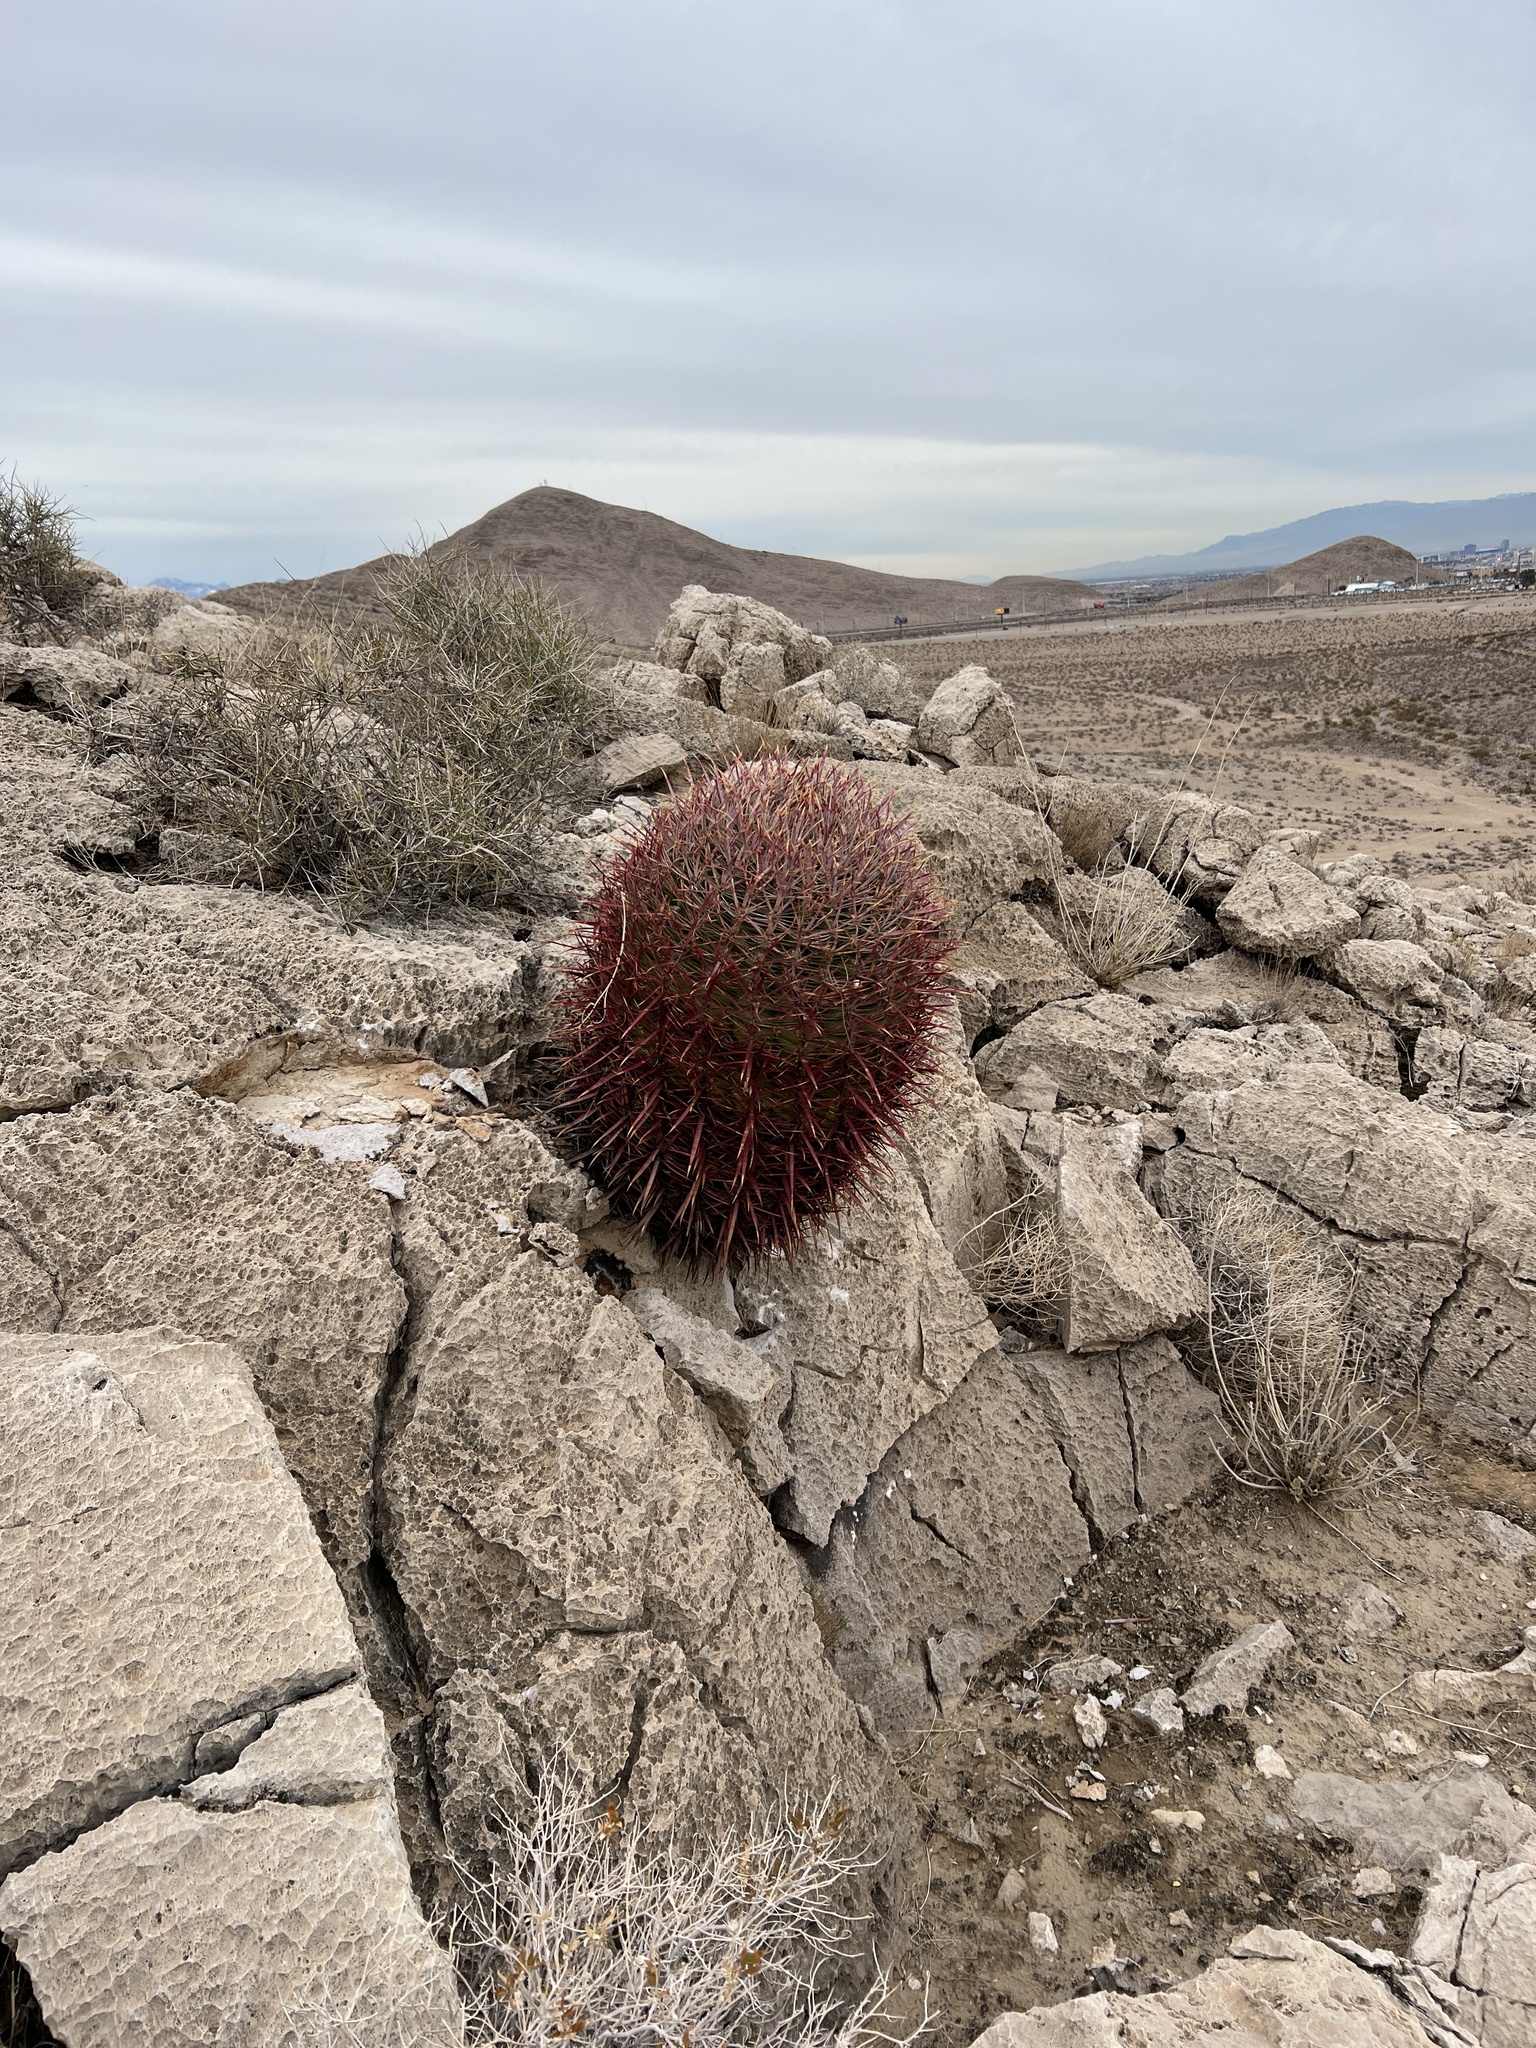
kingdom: Plantae
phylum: Tracheophyta
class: Magnoliopsida
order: Caryophyllales
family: Cactaceae
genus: Ferocactus
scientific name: Ferocactus cylindraceus
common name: California barrel cactus
